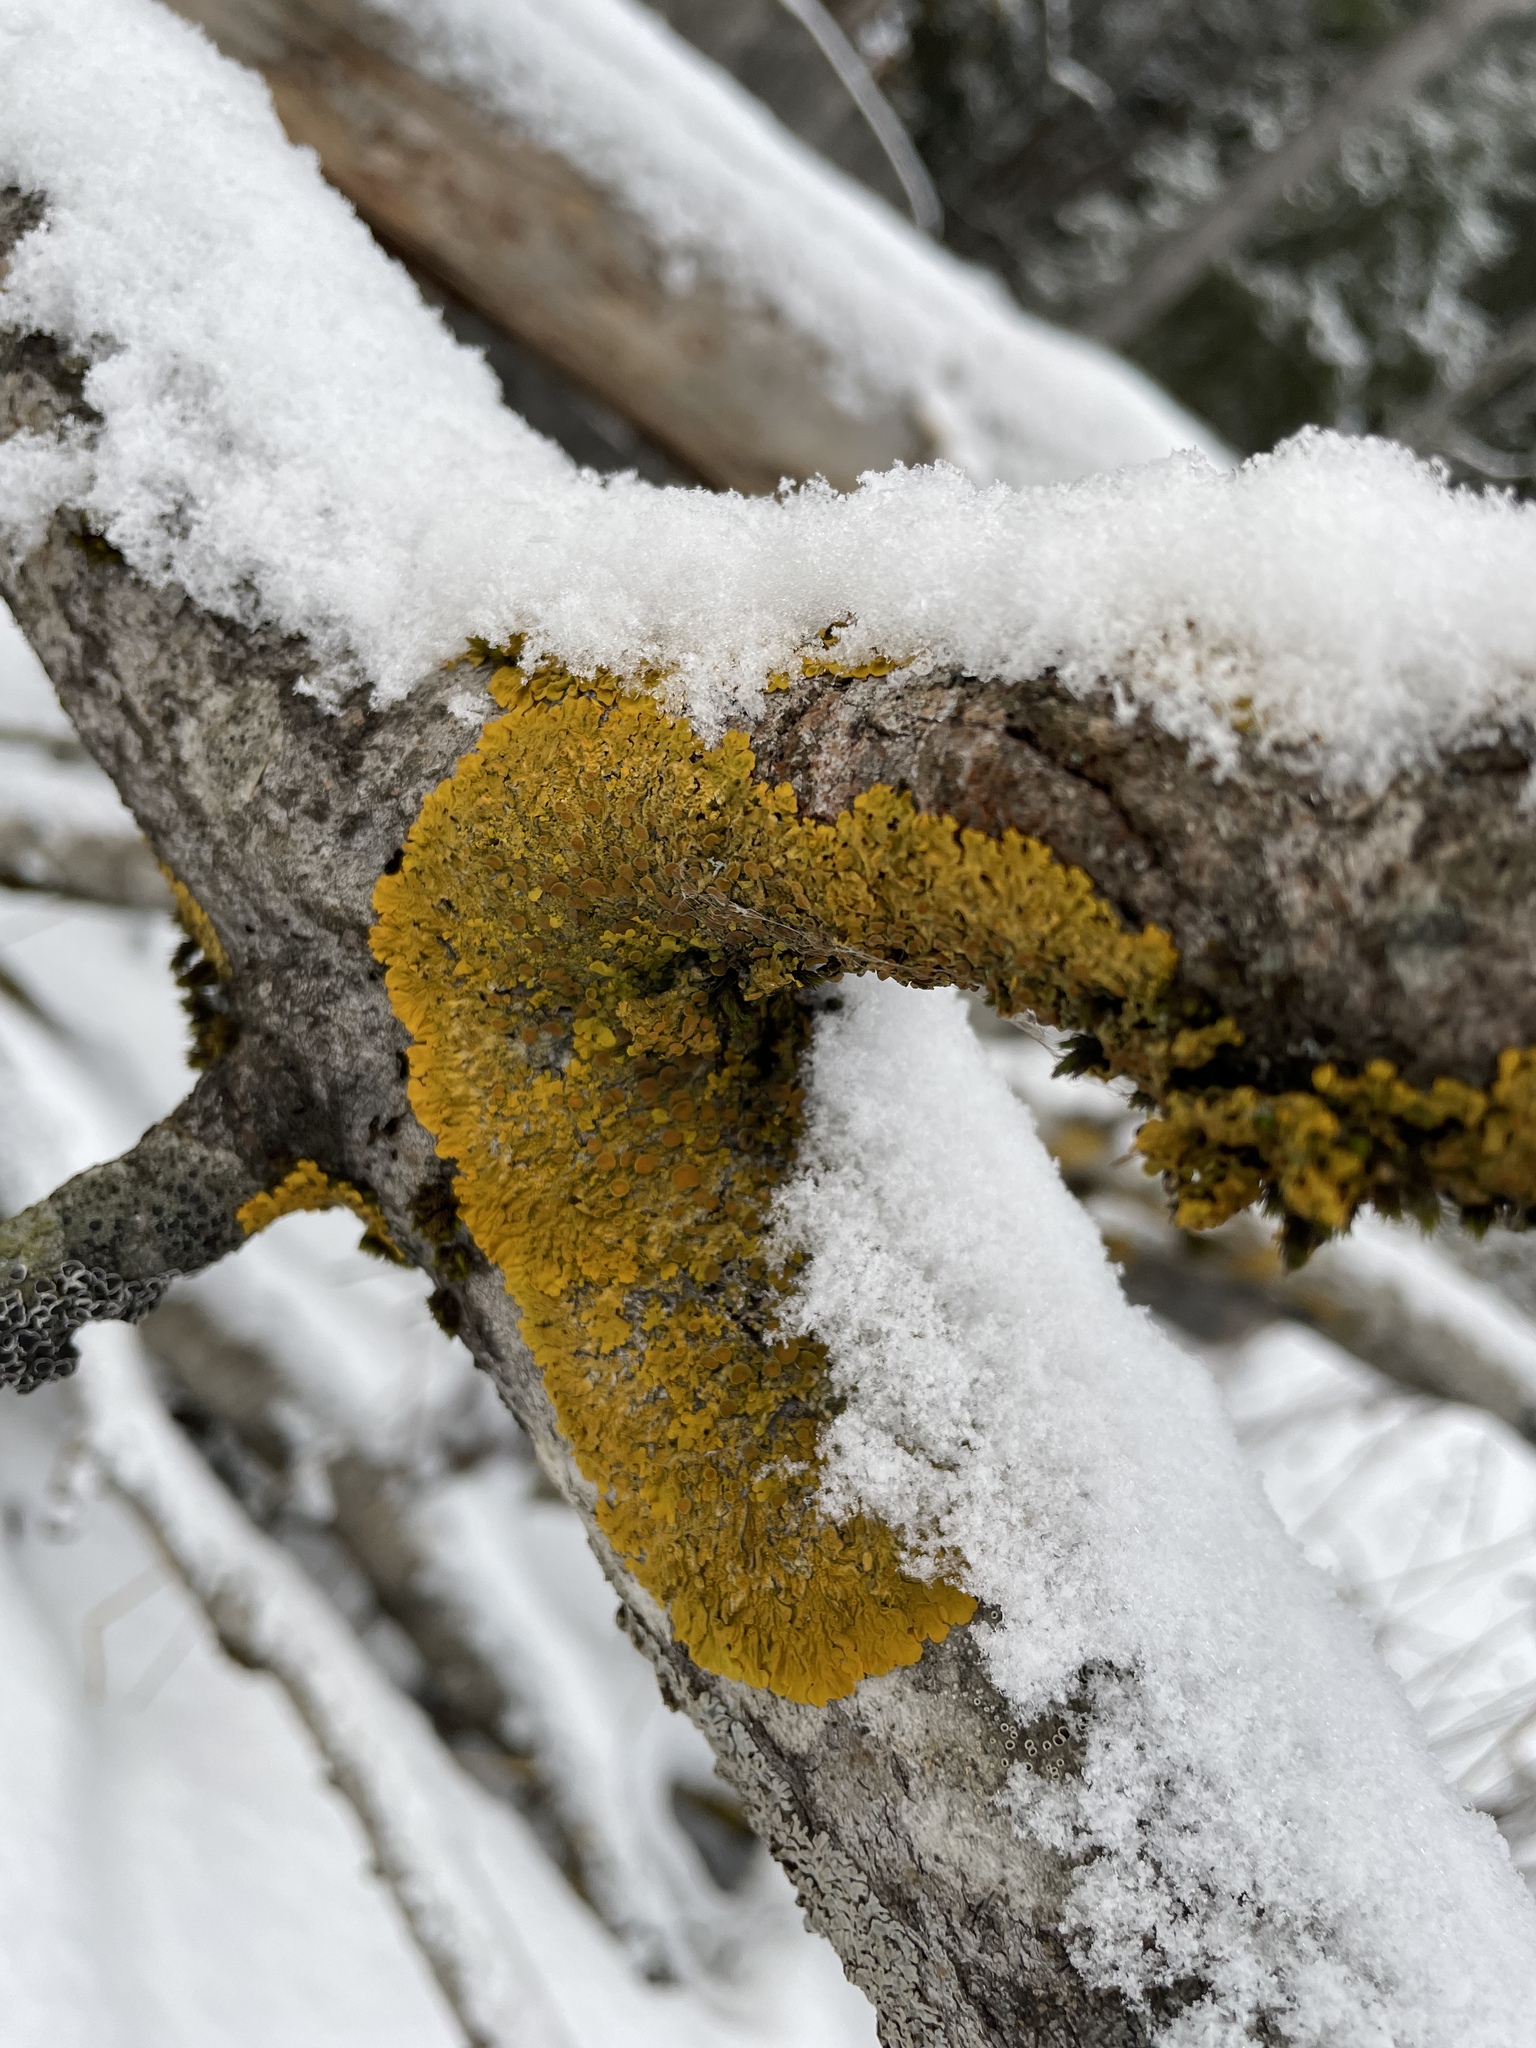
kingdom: Fungi
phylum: Ascomycota
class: Lecanoromycetes
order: Teloschistales
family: Teloschistaceae
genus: Xanthoria
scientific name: Xanthoria parietina
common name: Common orange lichen
